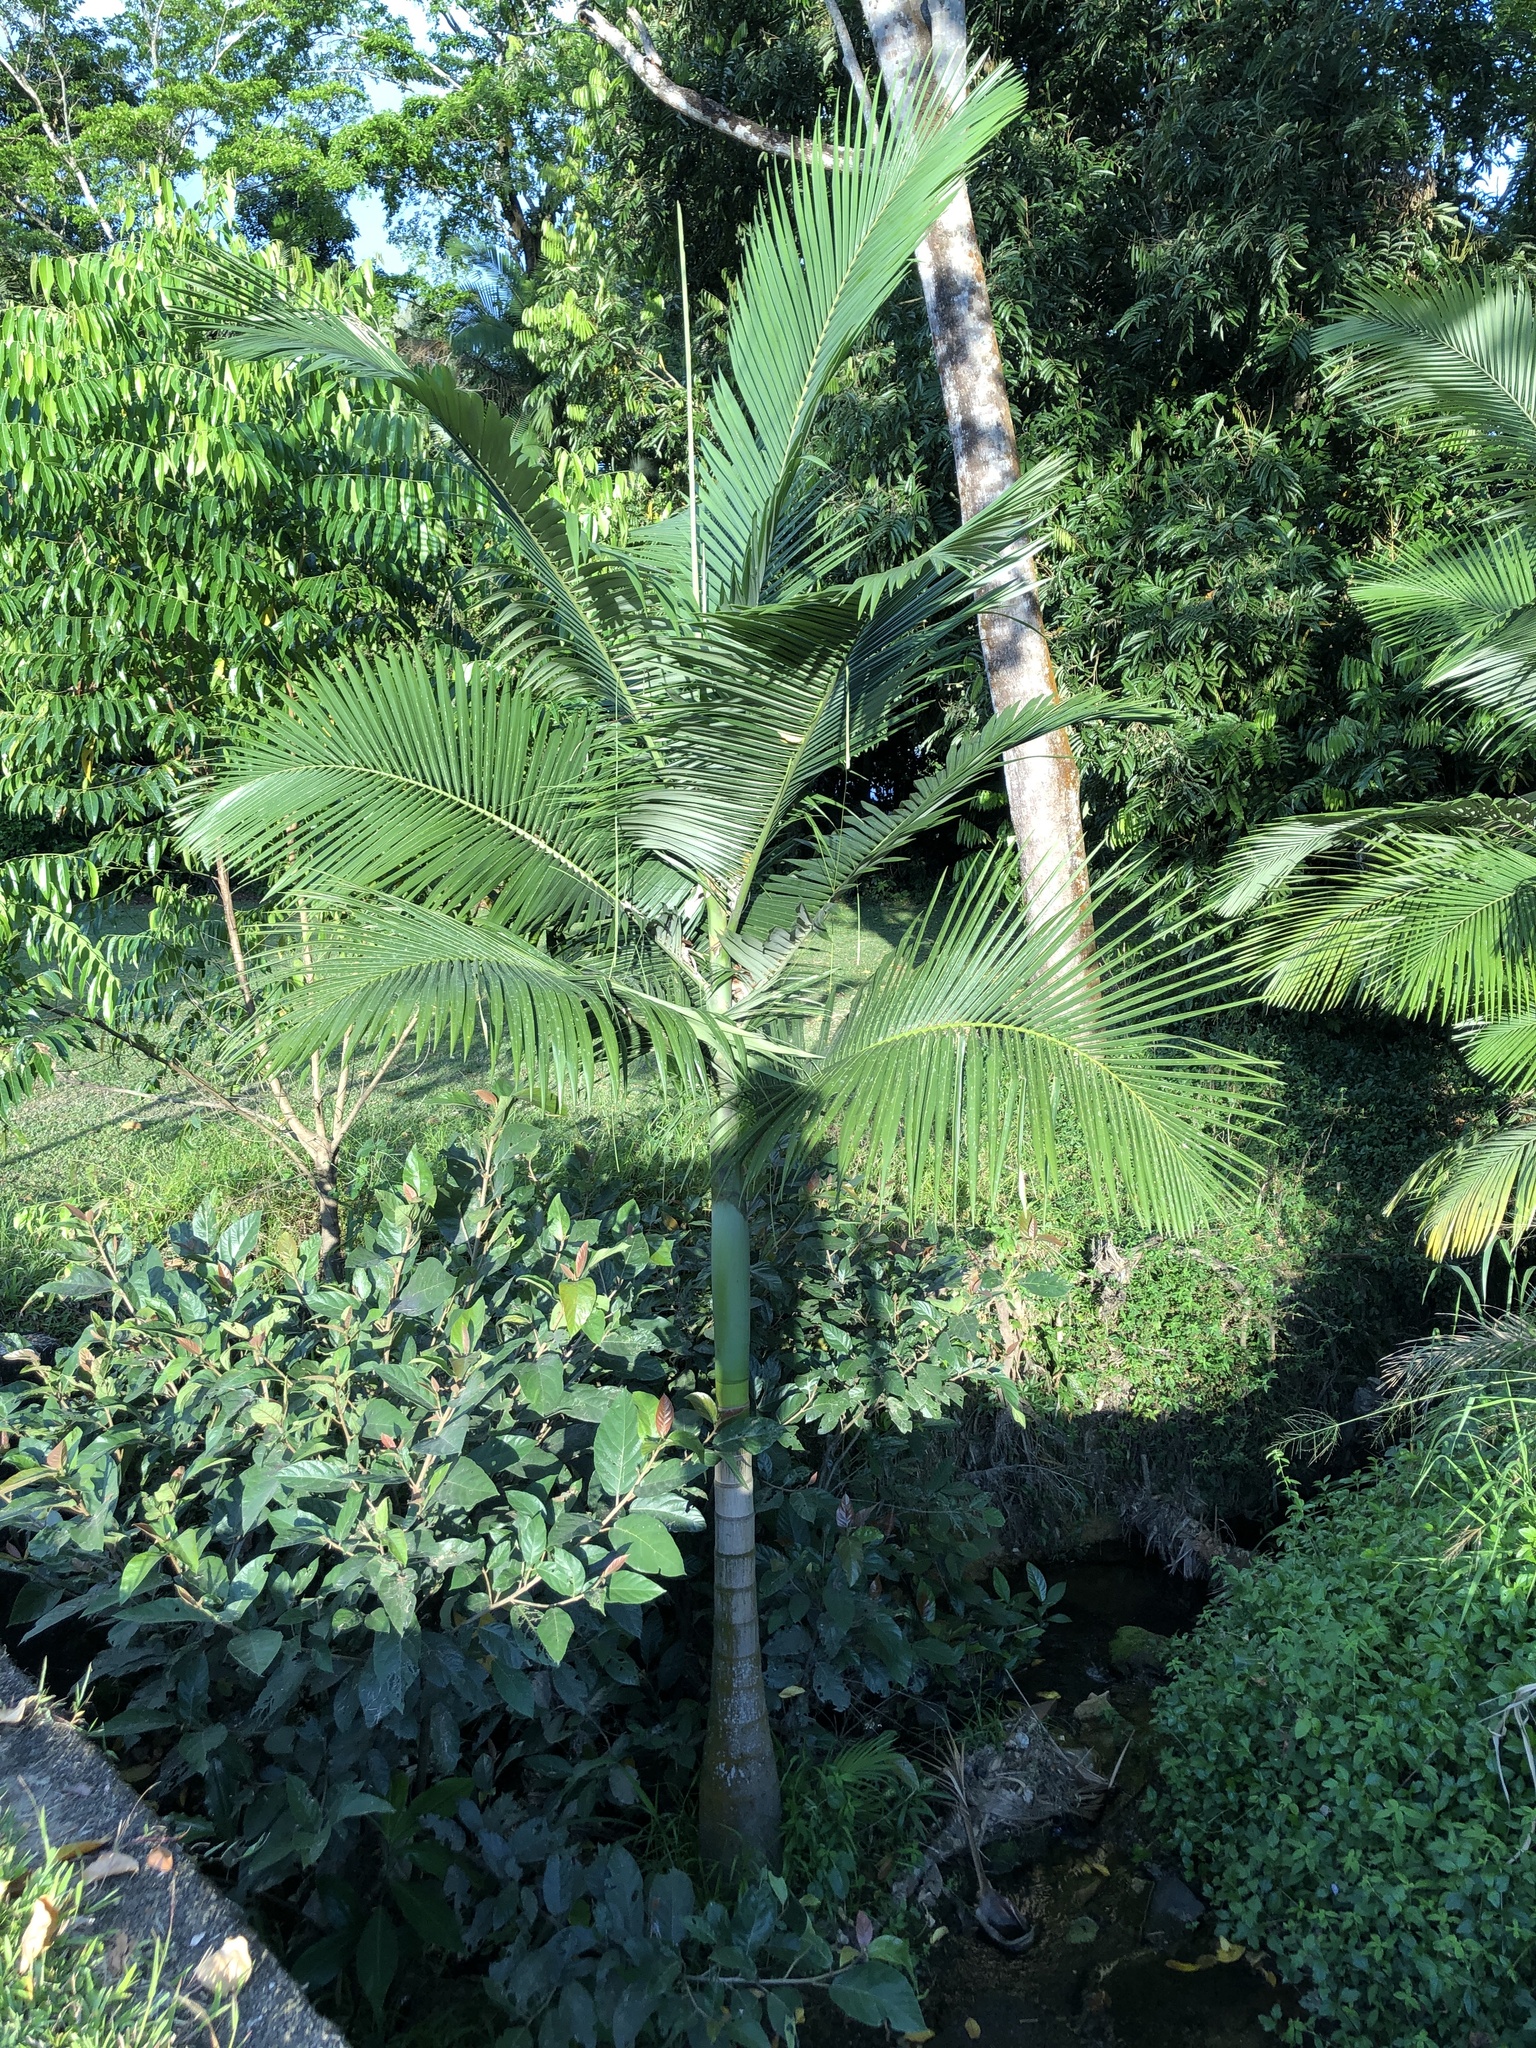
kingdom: Plantae
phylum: Tracheophyta
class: Liliopsida
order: Arecales
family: Arecaceae
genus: Archontophoenix
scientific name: Archontophoenix alexandrae
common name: Alexandra palm
